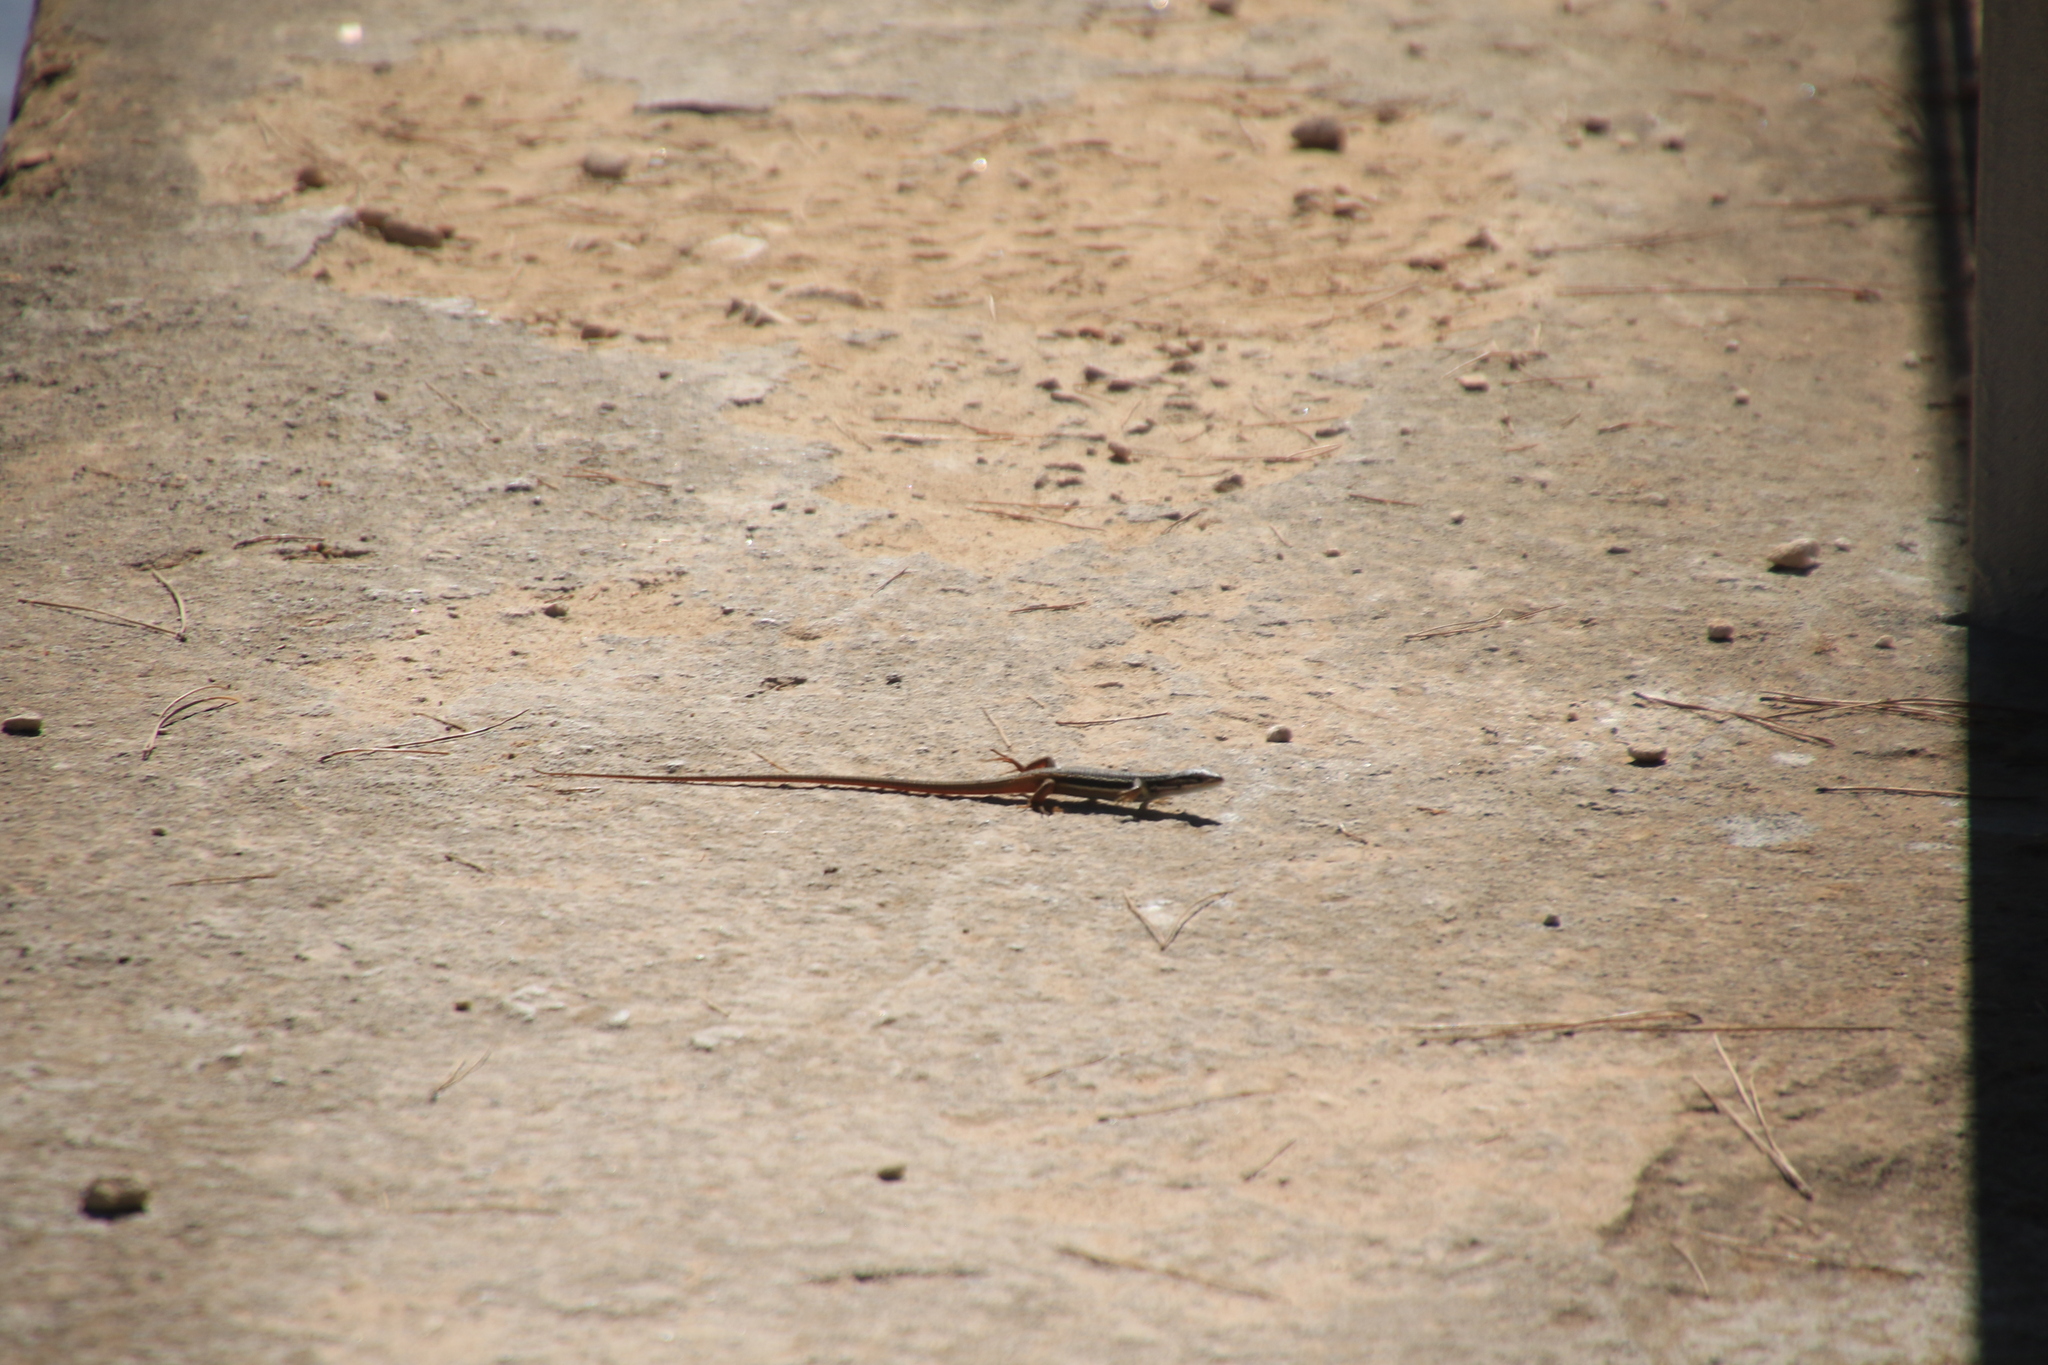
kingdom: Animalia
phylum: Chordata
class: Squamata
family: Lacertidae
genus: Psammodromus
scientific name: Psammodromus algirus
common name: Algerian psammodromus
